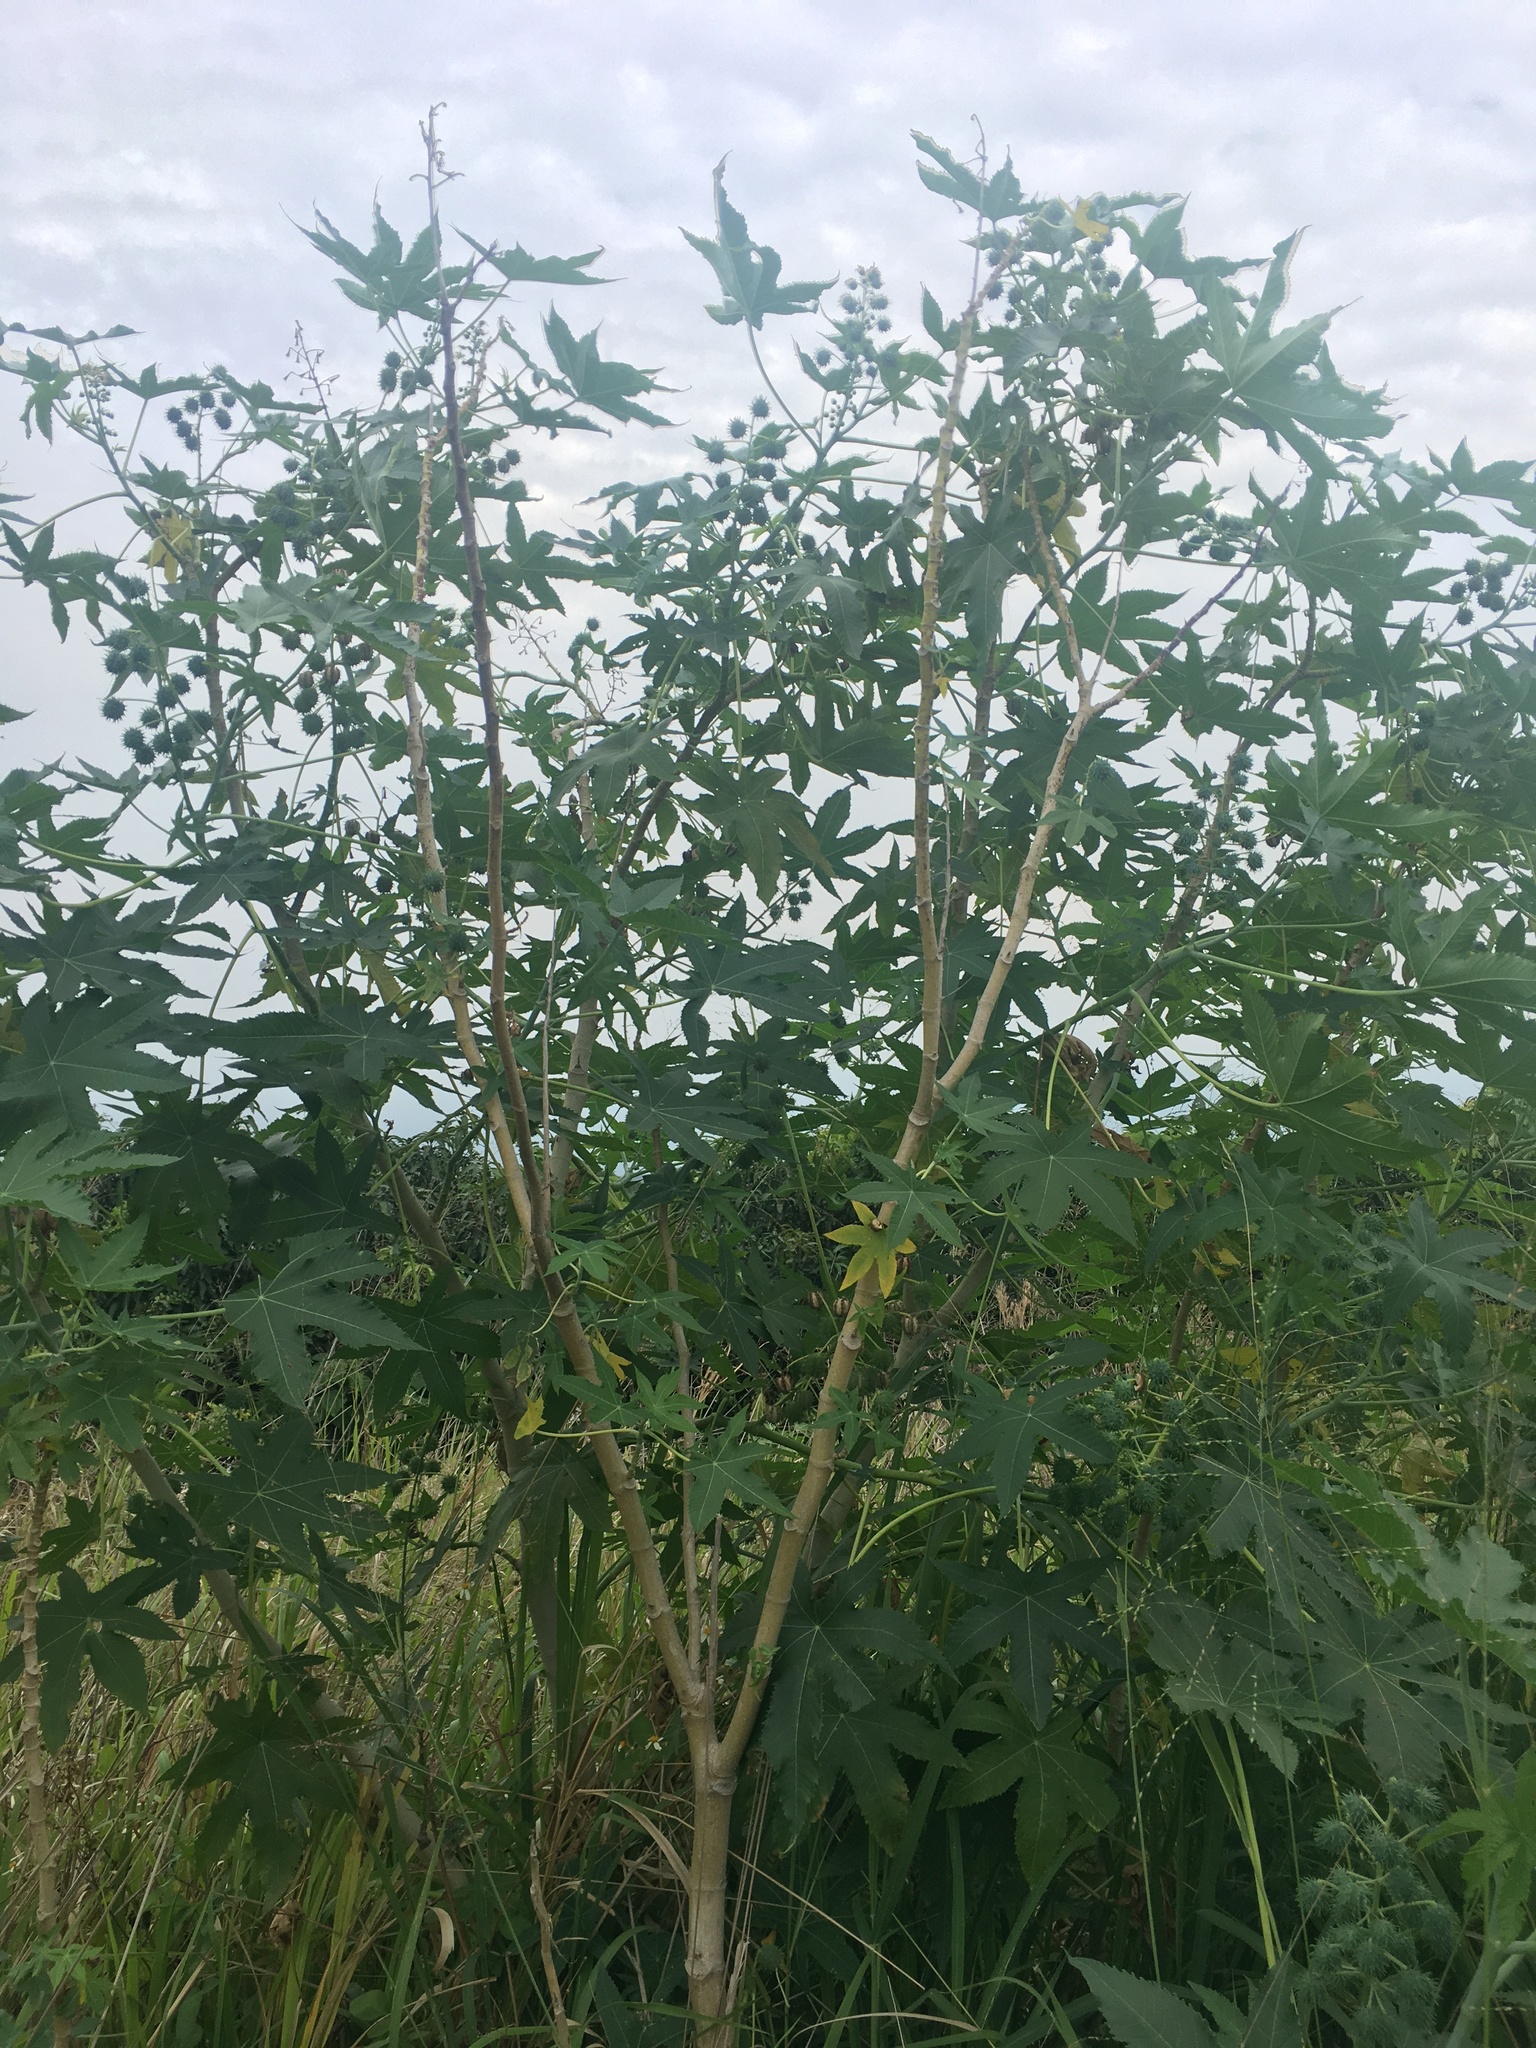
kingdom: Plantae
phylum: Tracheophyta
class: Magnoliopsida
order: Malpighiales
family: Euphorbiaceae
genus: Ricinus
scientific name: Ricinus communis
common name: Castor-oil-plant
